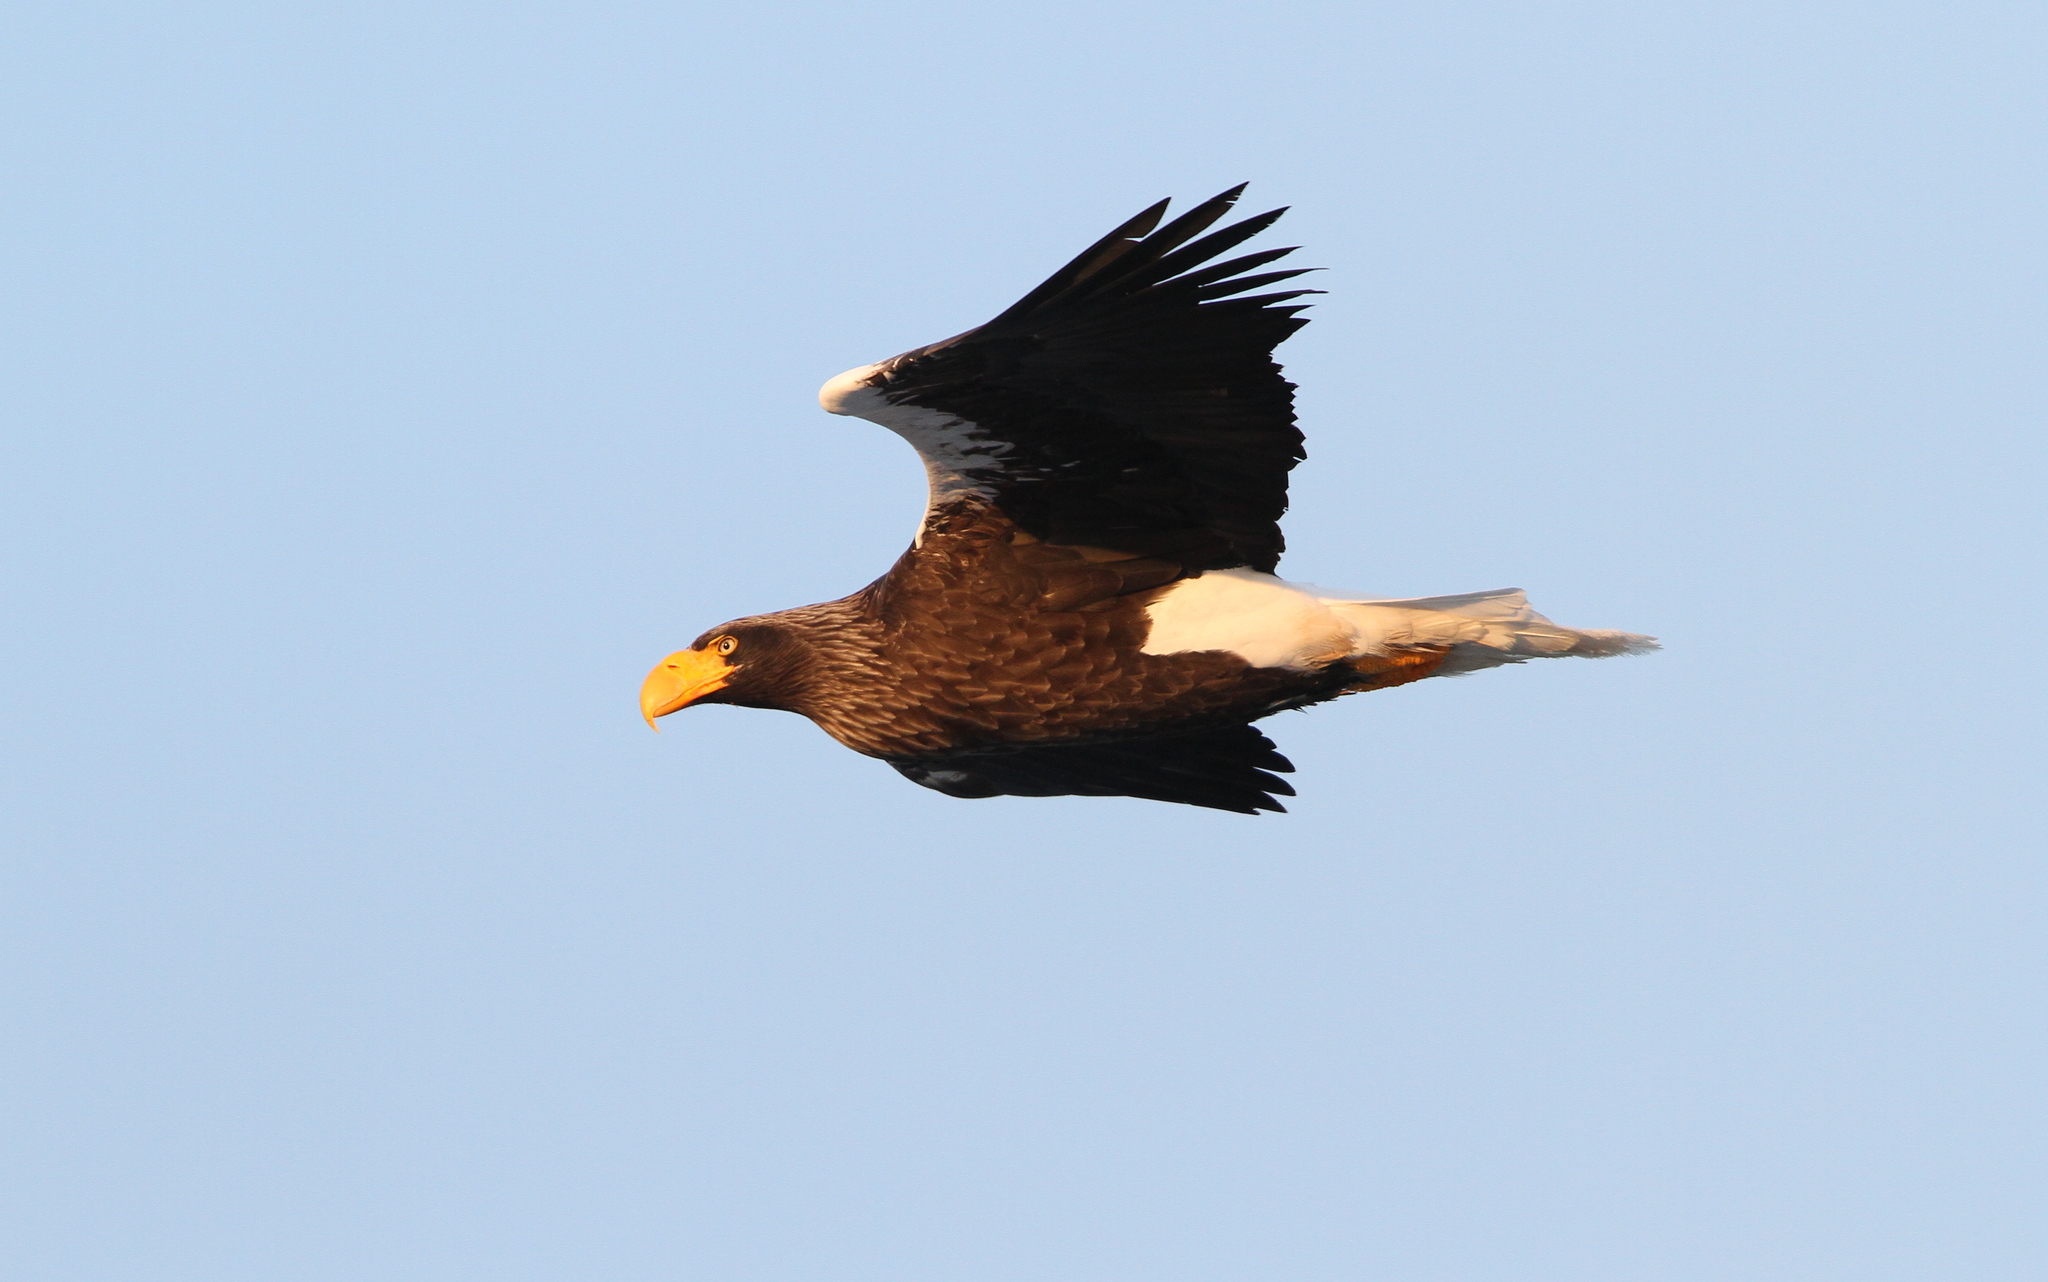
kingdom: Animalia
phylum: Chordata
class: Aves
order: Accipitriformes
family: Accipitridae
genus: Haliaeetus
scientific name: Haliaeetus pelagicus
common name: Steller's sea eagle
